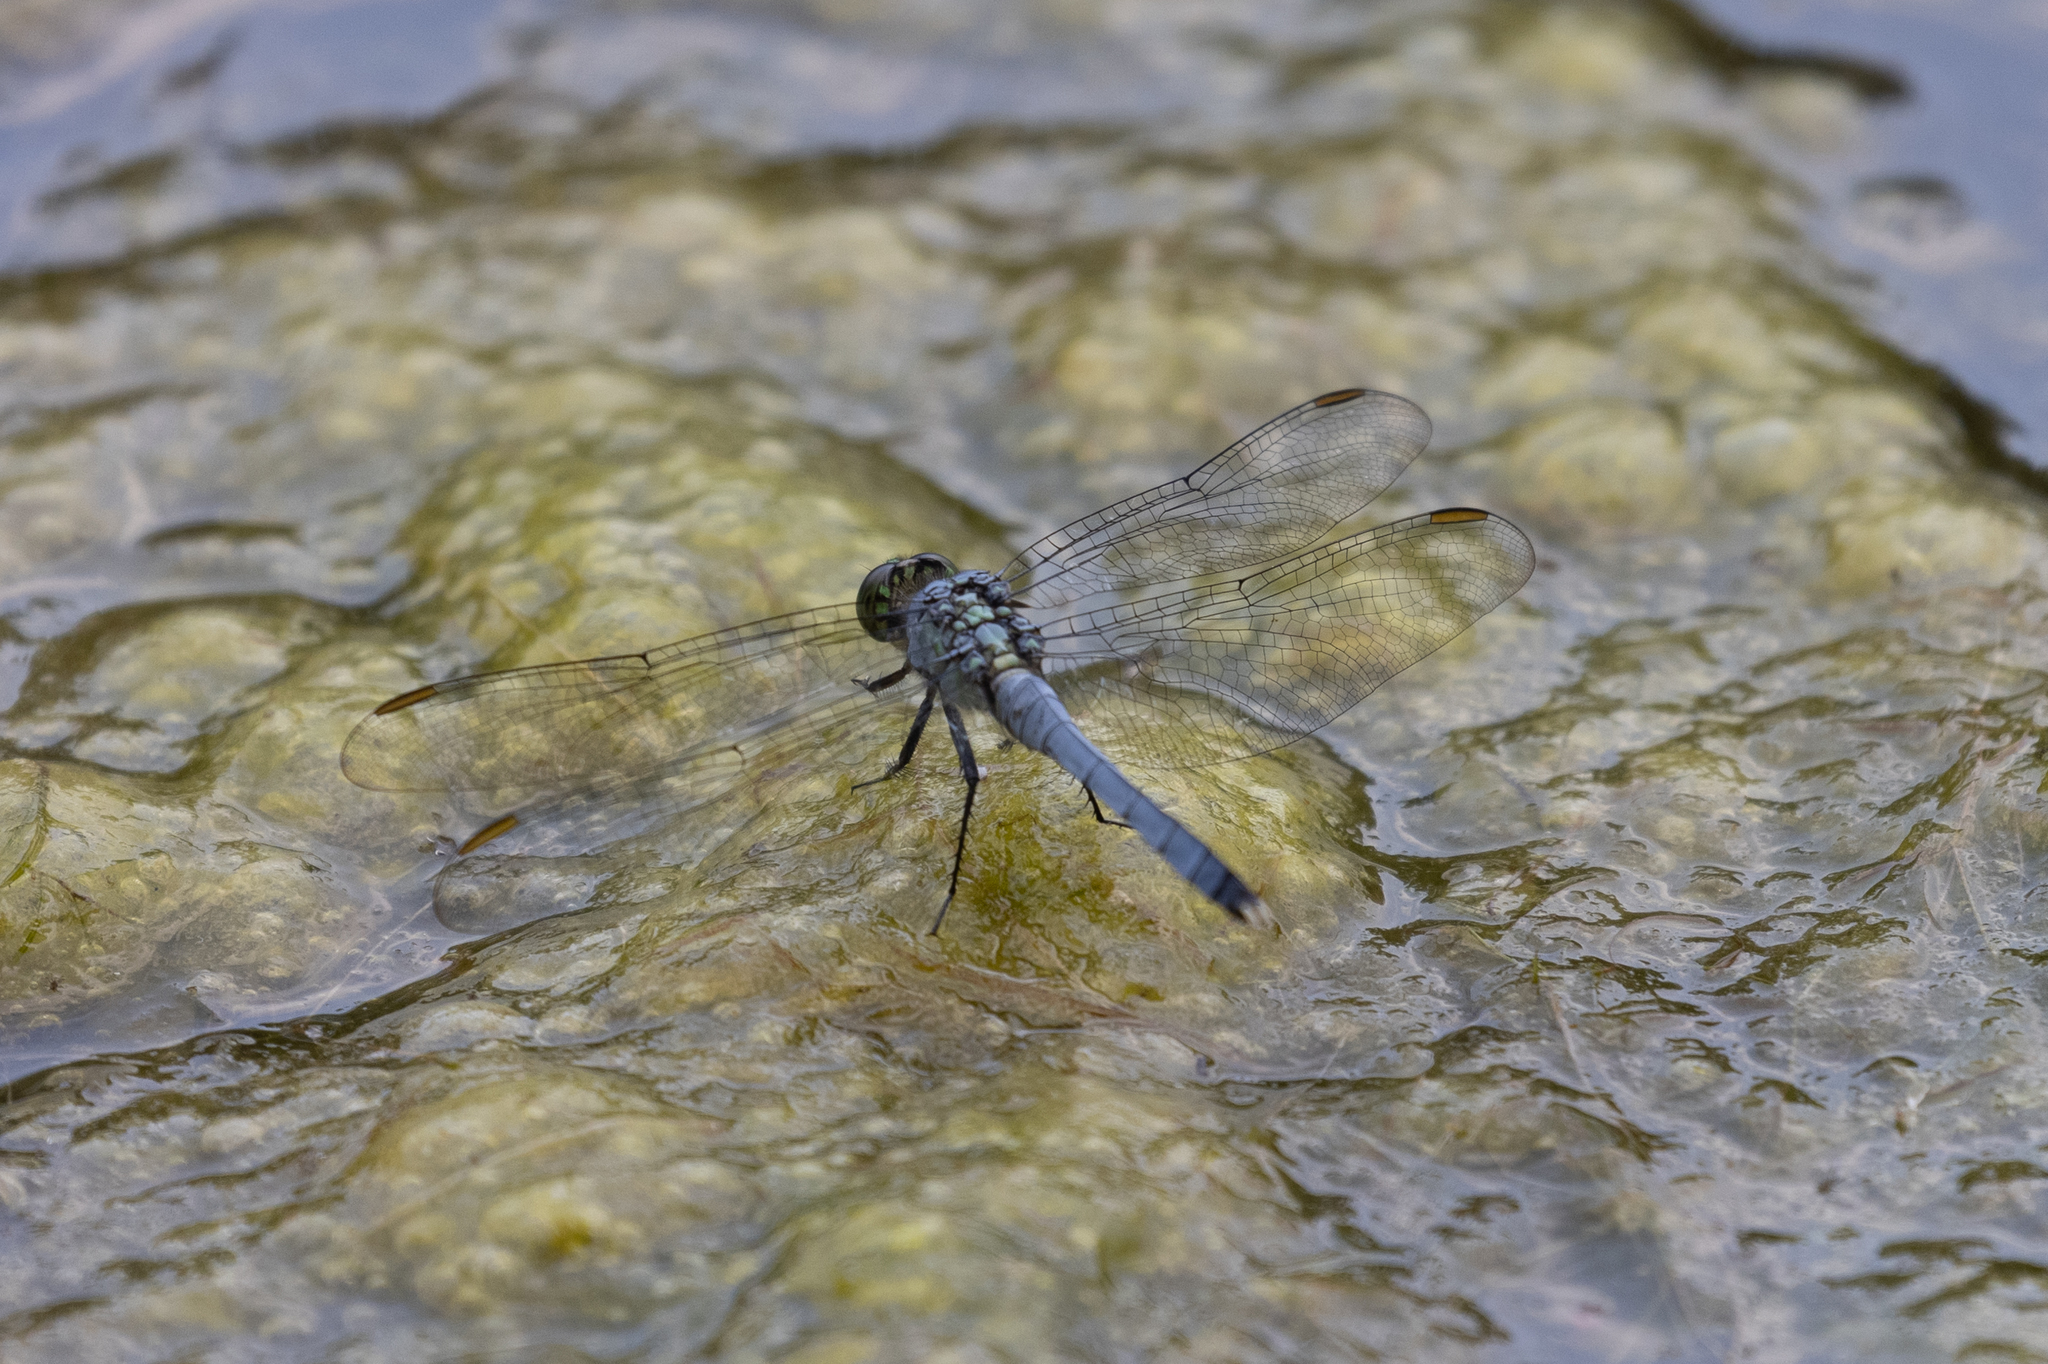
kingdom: Animalia
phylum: Arthropoda
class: Insecta
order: Odonata
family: Libellulidae
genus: Erythemis
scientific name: Erythemis simplicicollis
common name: Eastern pondhawk
